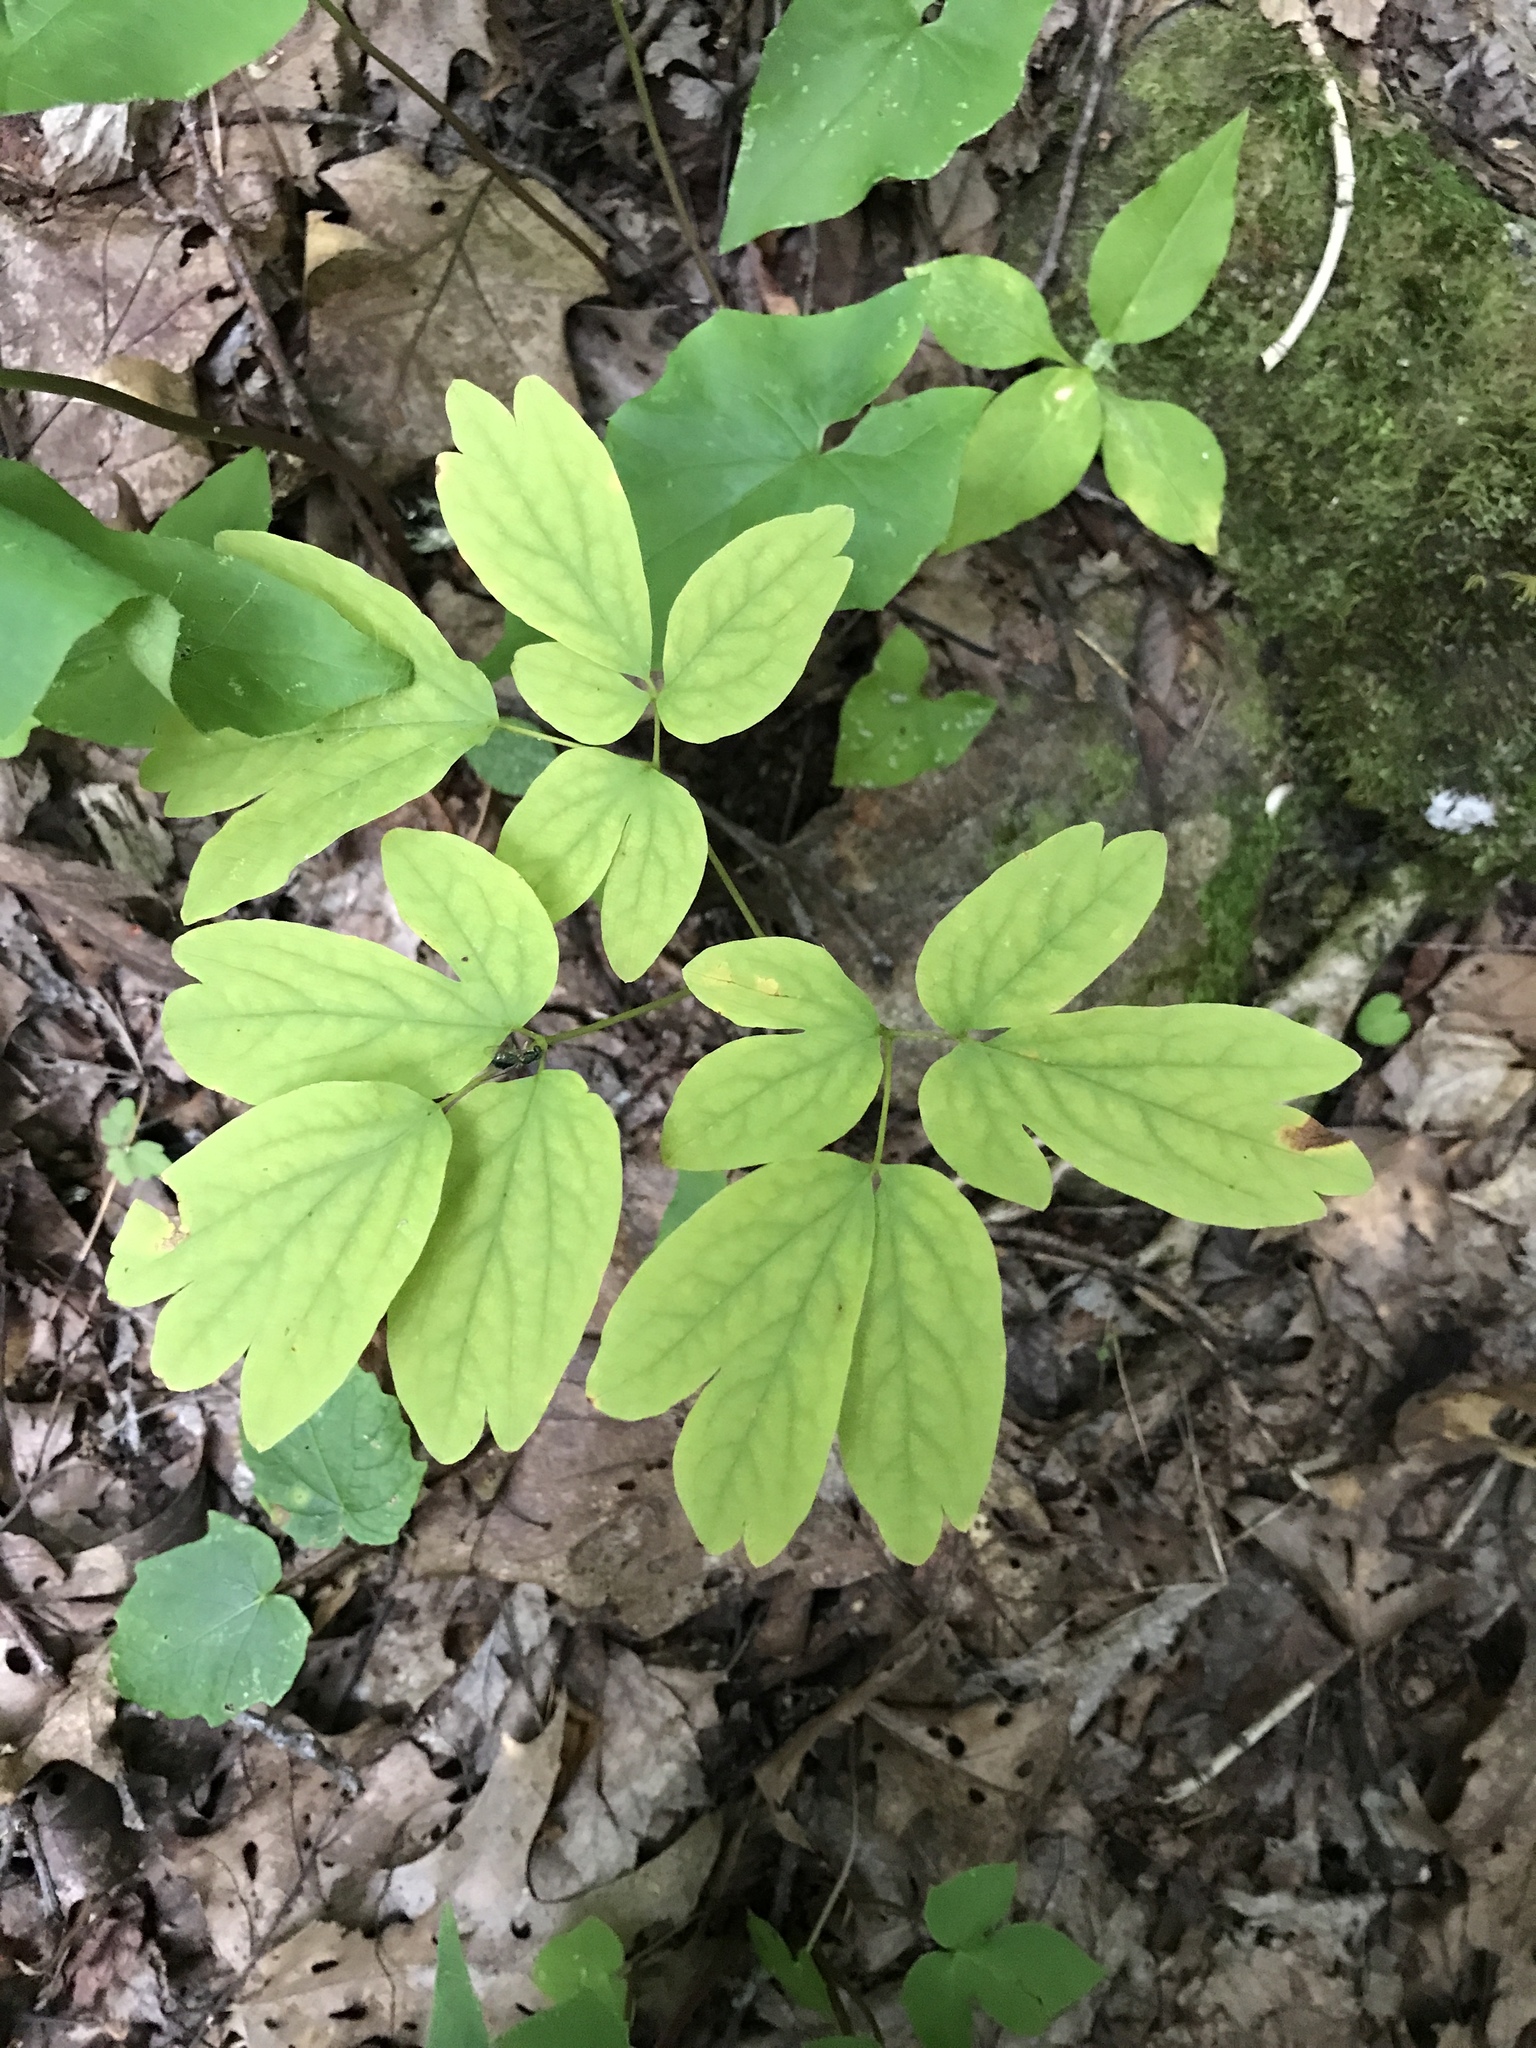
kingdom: Plantae
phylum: Tracheophyta
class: Magnoliopsida
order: Ranunculales
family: Berberidaceae
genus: Caulophyllum
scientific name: Caulophyllum thalictroides
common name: Blue cohosh
